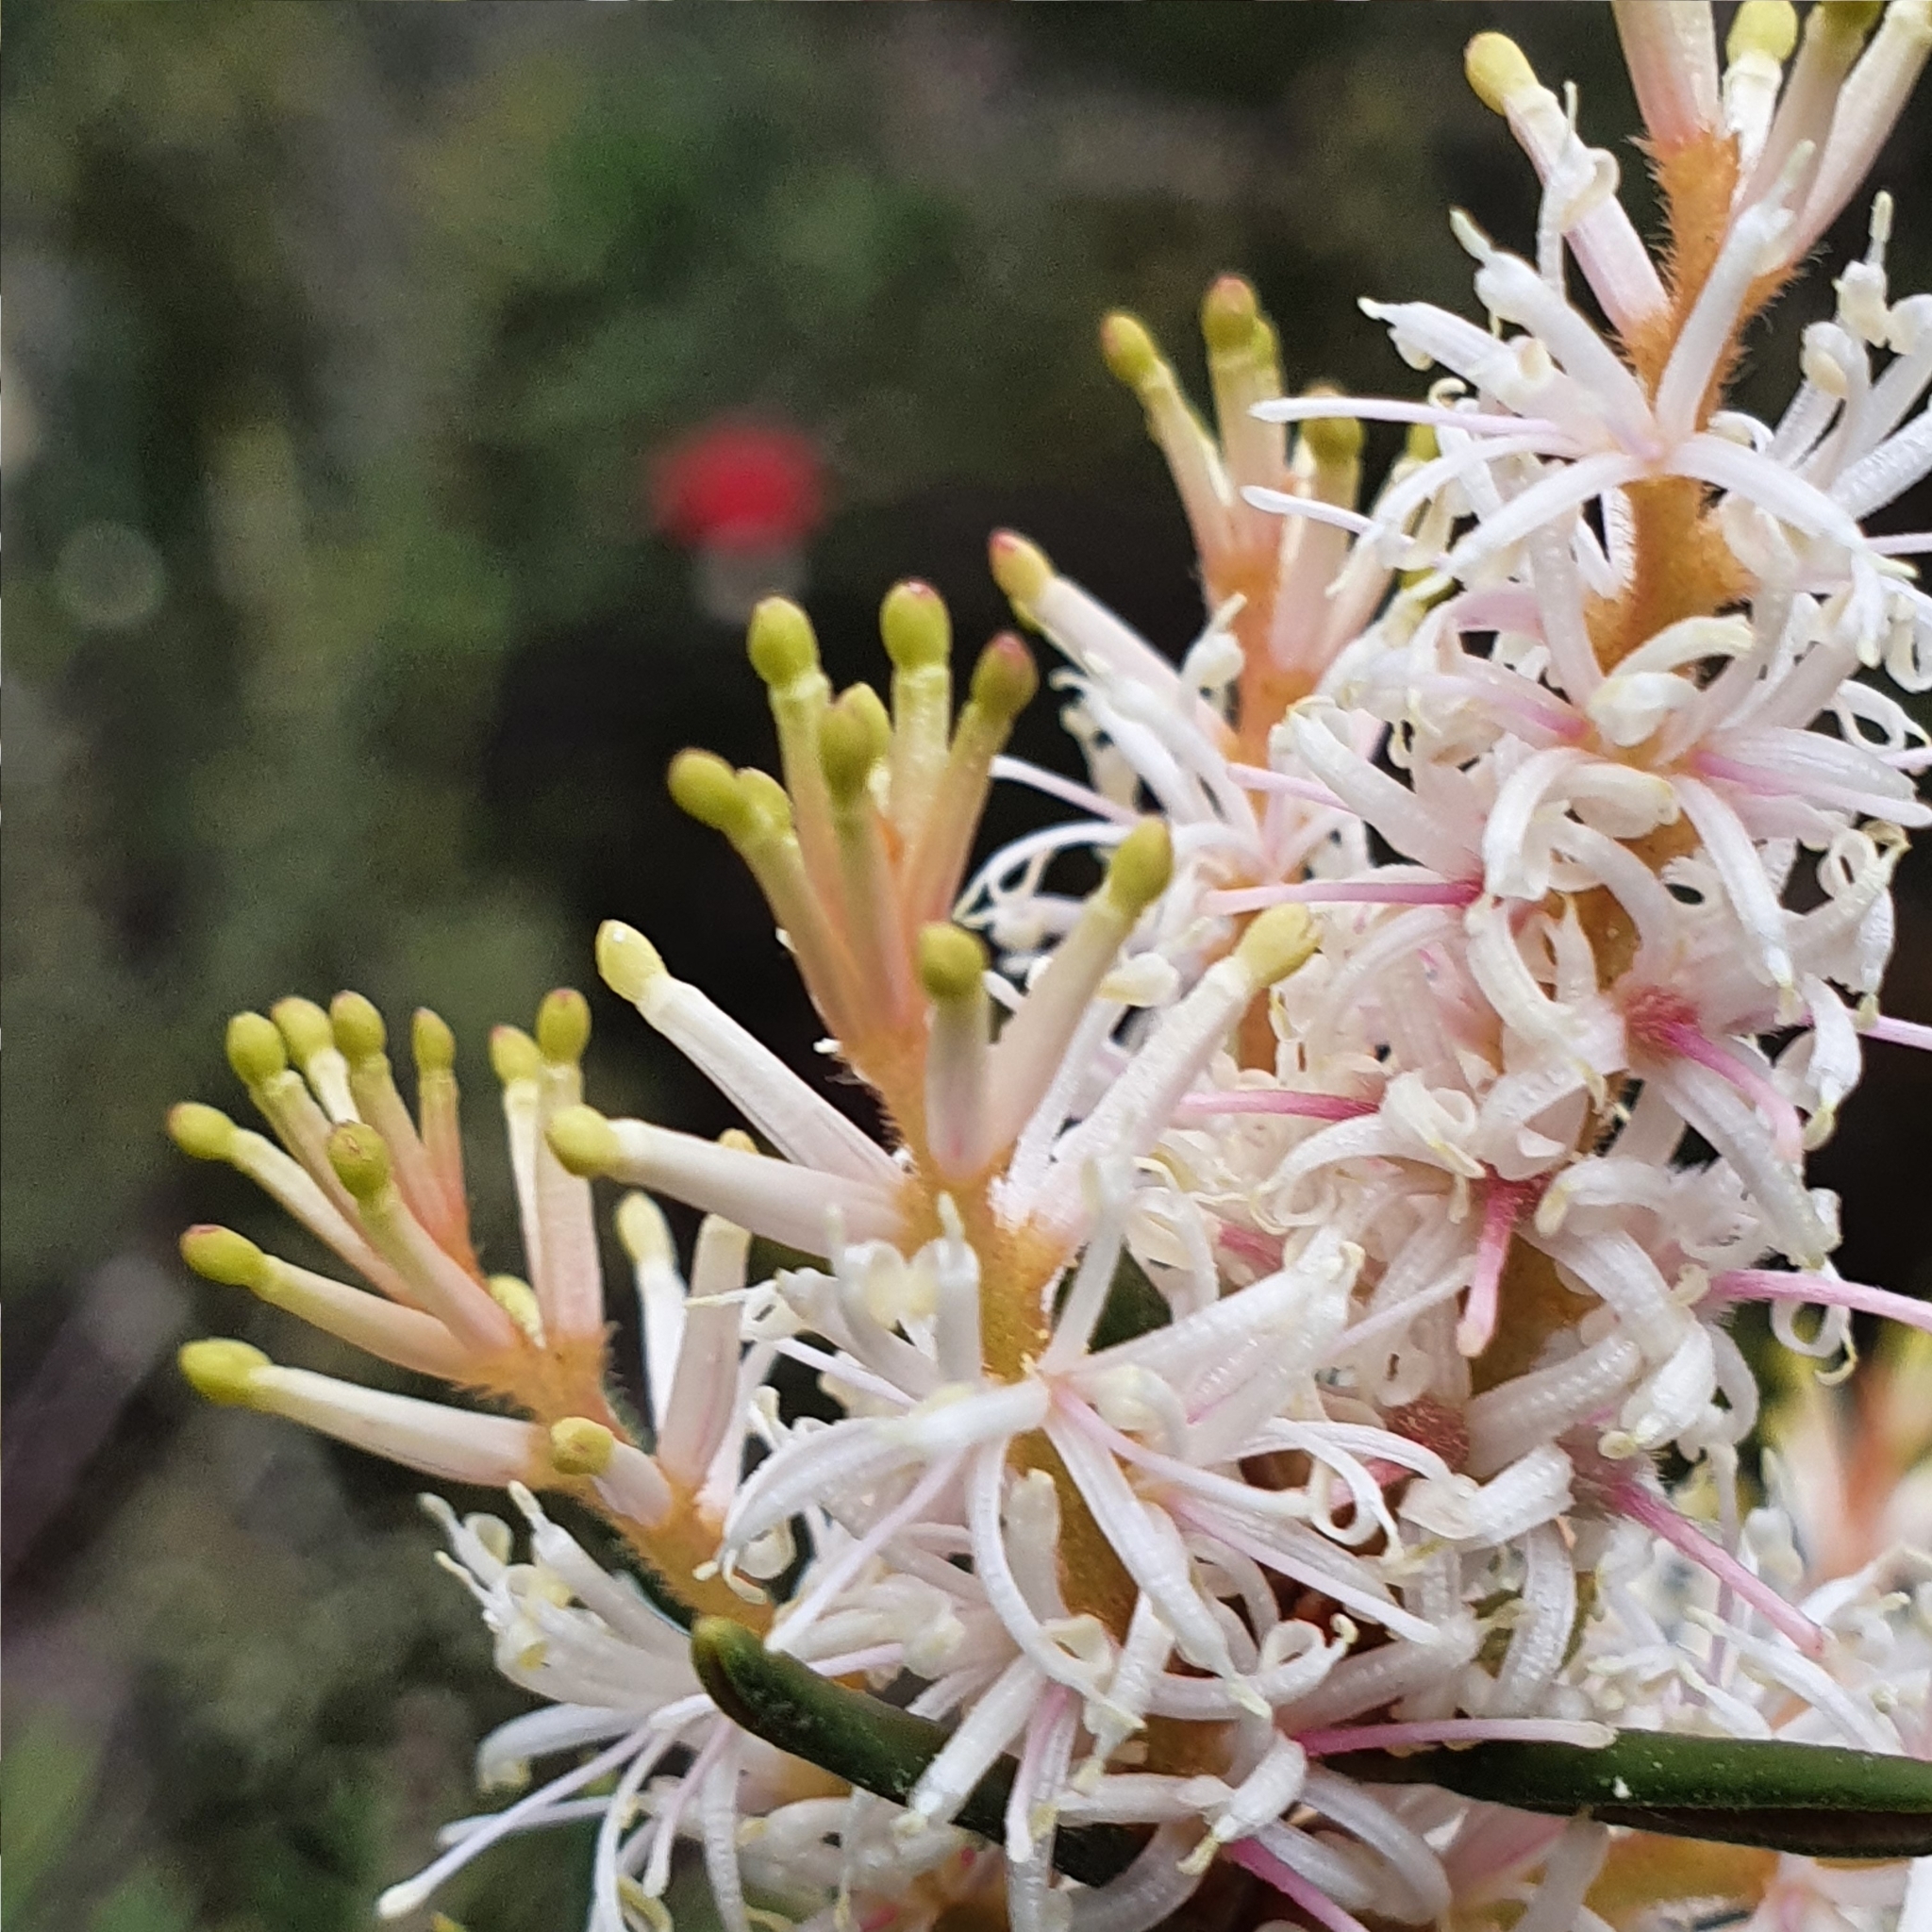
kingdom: Plantae
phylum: Tracheophyta
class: Magnoliopsida
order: Proteales
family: Proteaceae
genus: Orites
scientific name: Orites revolutus
